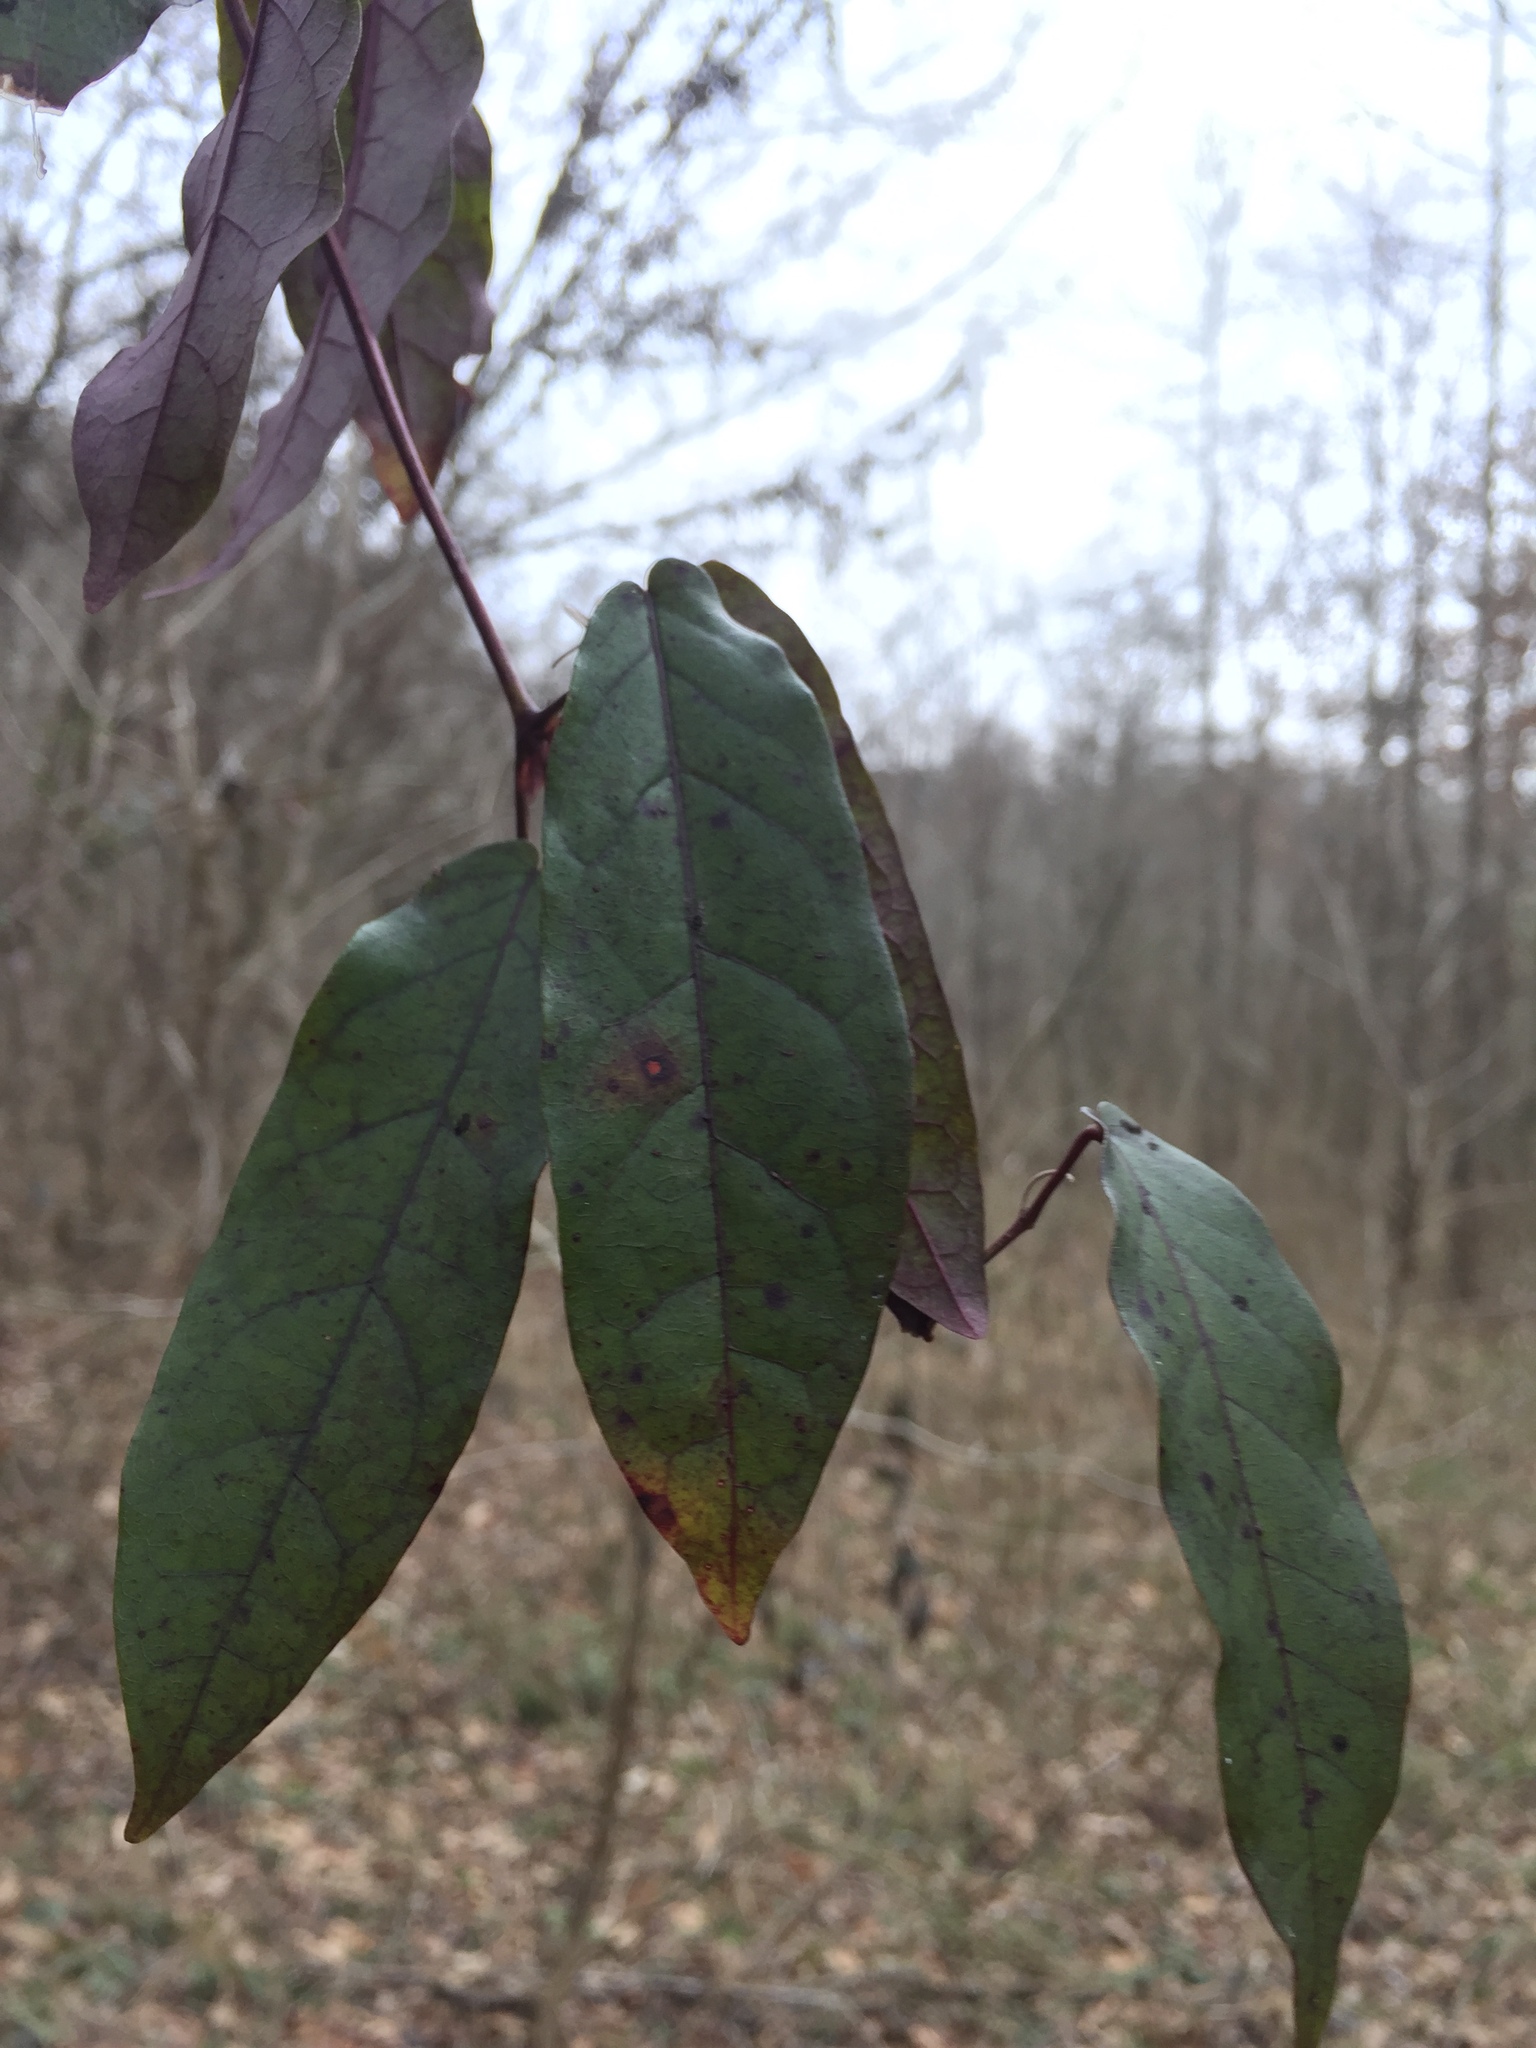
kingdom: Plantae
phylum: Tracheophyta
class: Magnoliopsida
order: Lamiales
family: Bignoniaceae
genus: Bignonia
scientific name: Bignonia capreolata
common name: Crossvine
